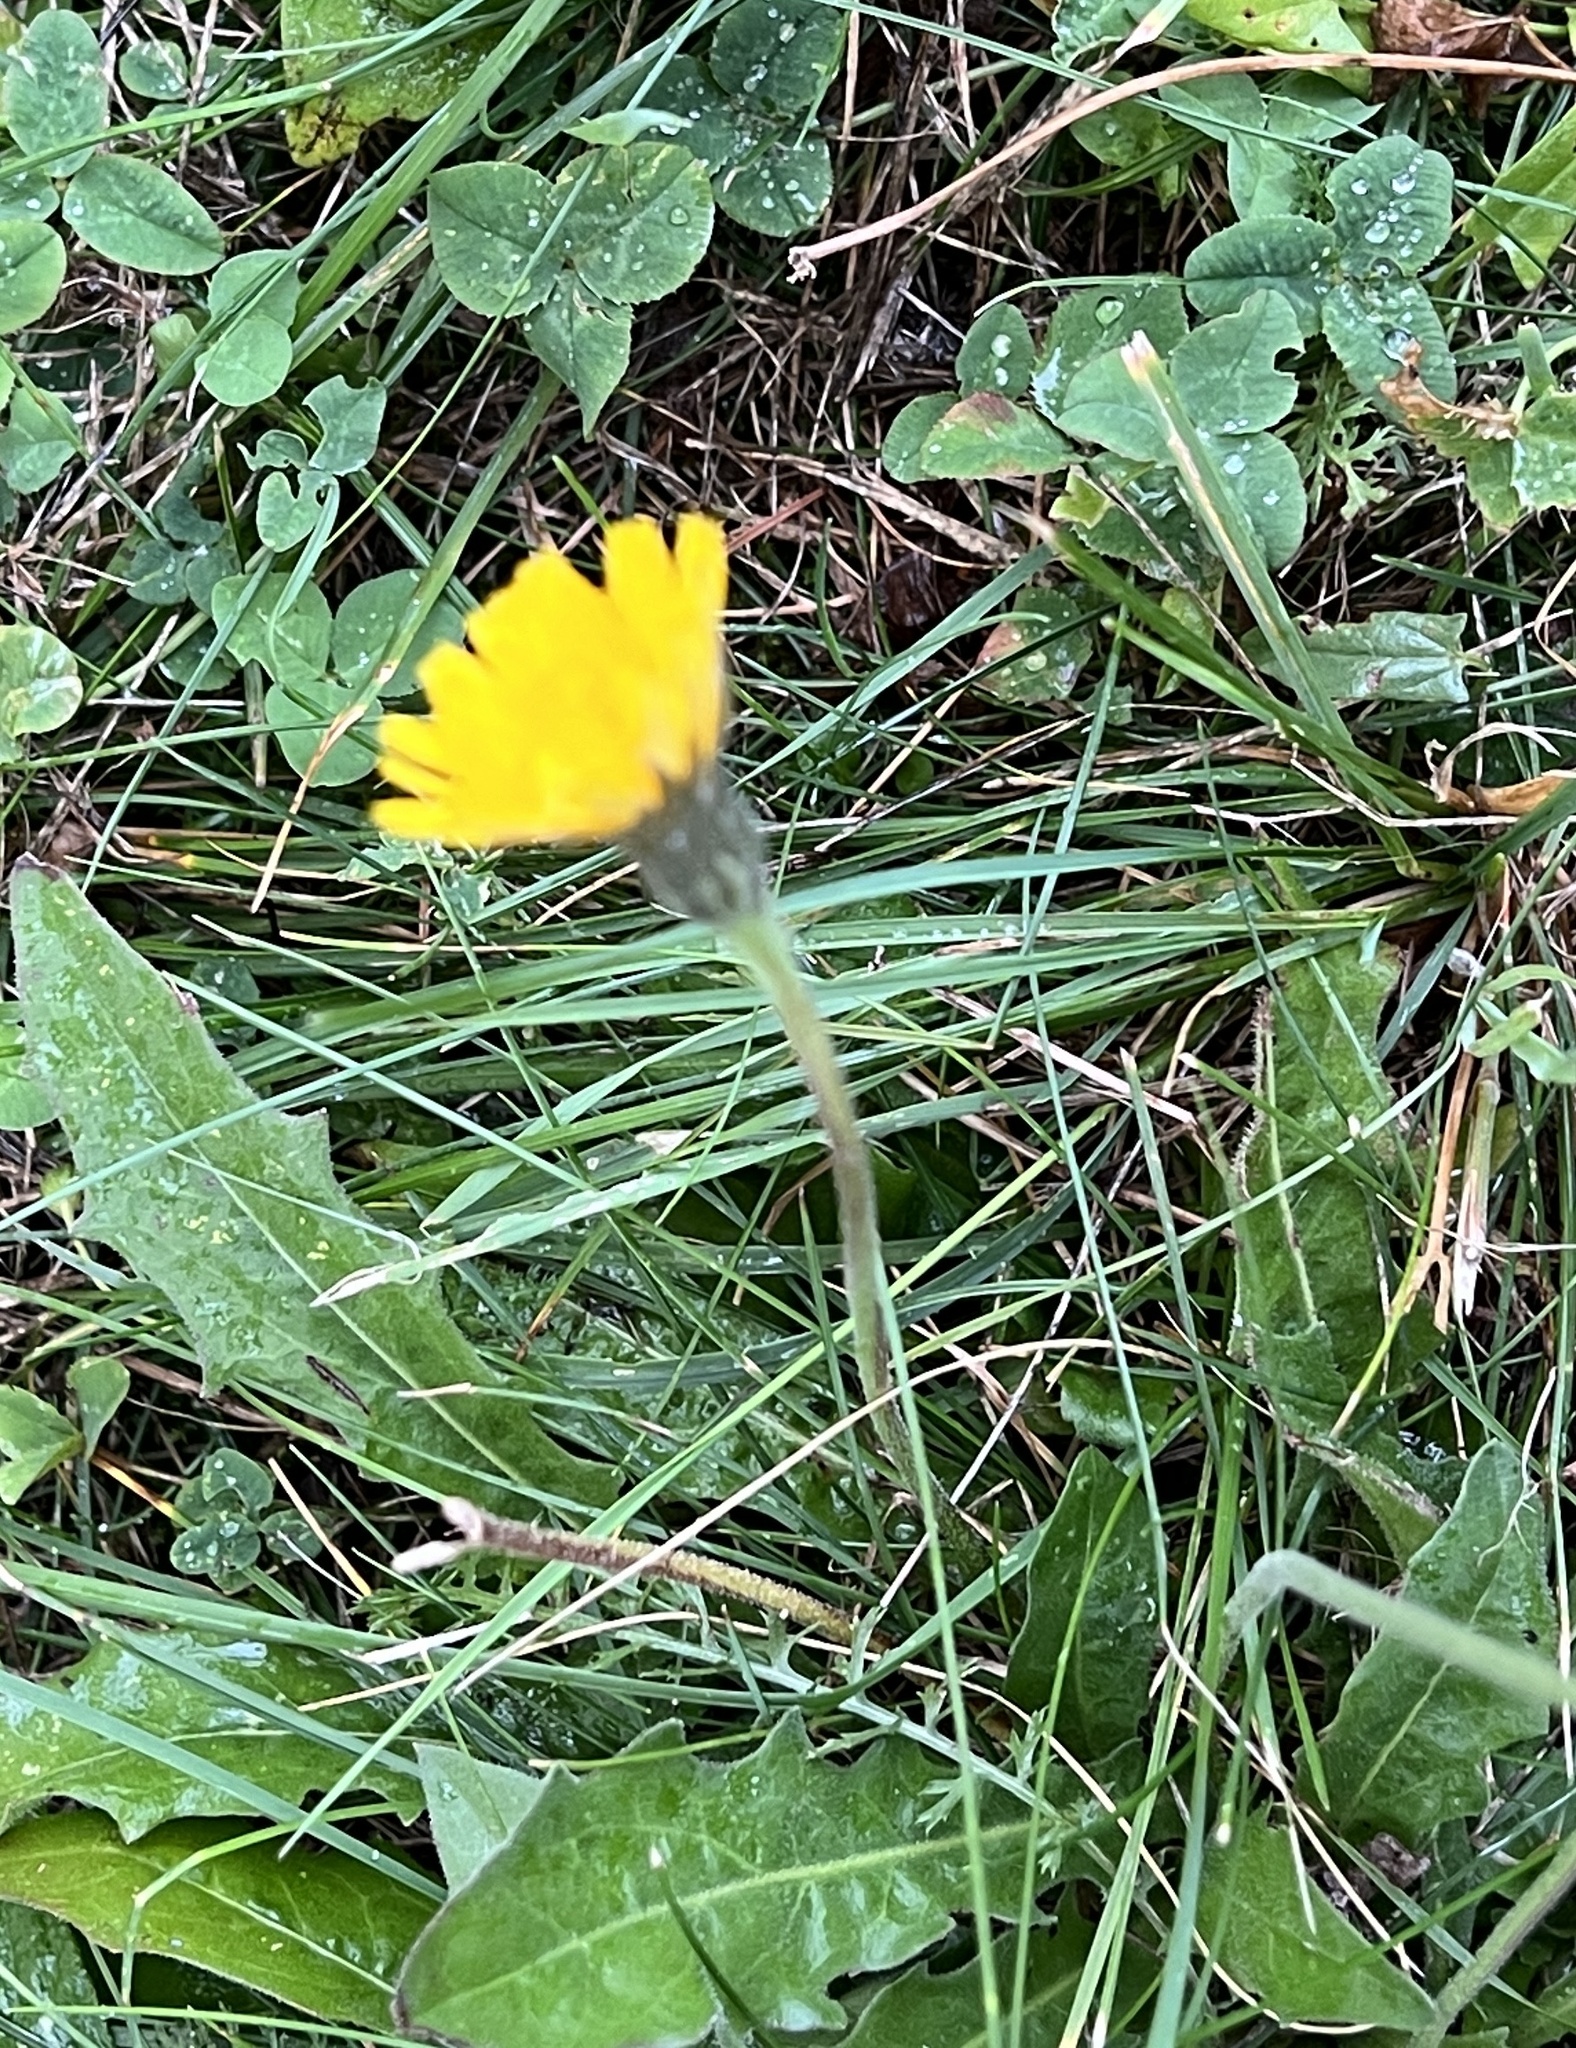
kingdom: Plantae
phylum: Tracheophyta
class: Magnoliopsida
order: Asterales
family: Asteraceae
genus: Leontodon
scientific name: Leontodon hispidus
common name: Rough hawkbit
